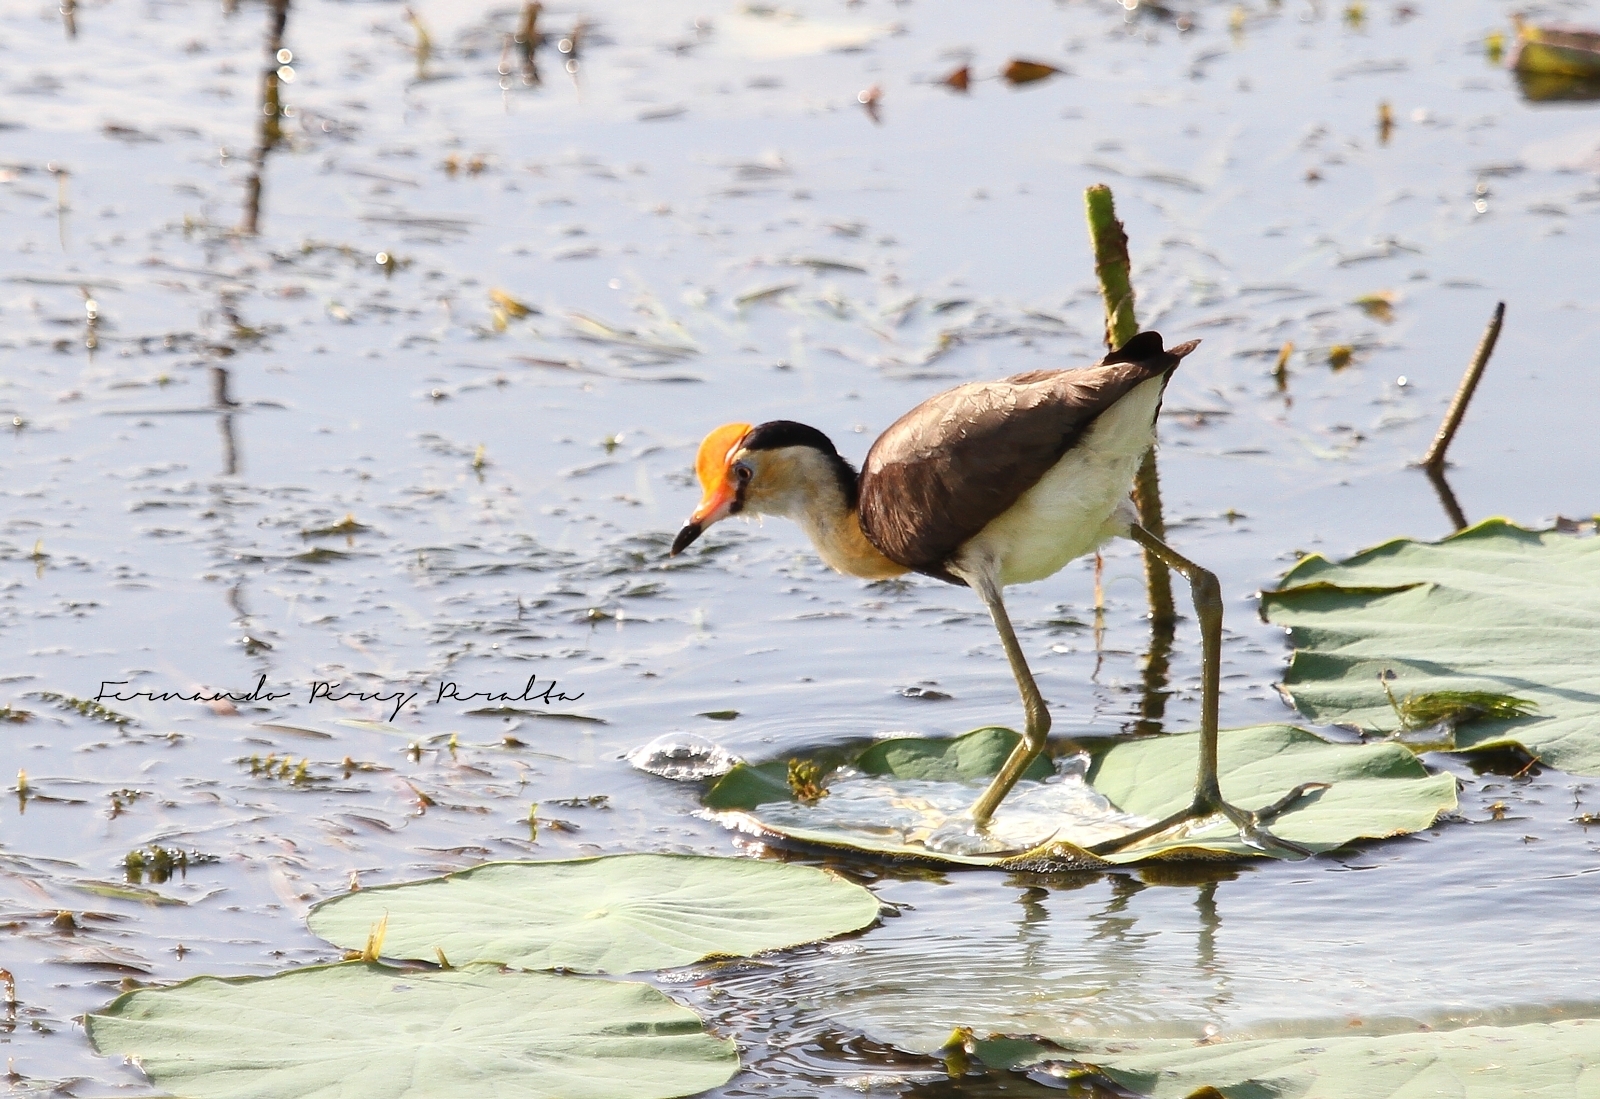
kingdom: Animalia
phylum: Chordata
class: Aves
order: Charadriiformes
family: Jacanidae
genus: Irediparra
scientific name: Irediparra gallinacea
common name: Comb-crested jacana
